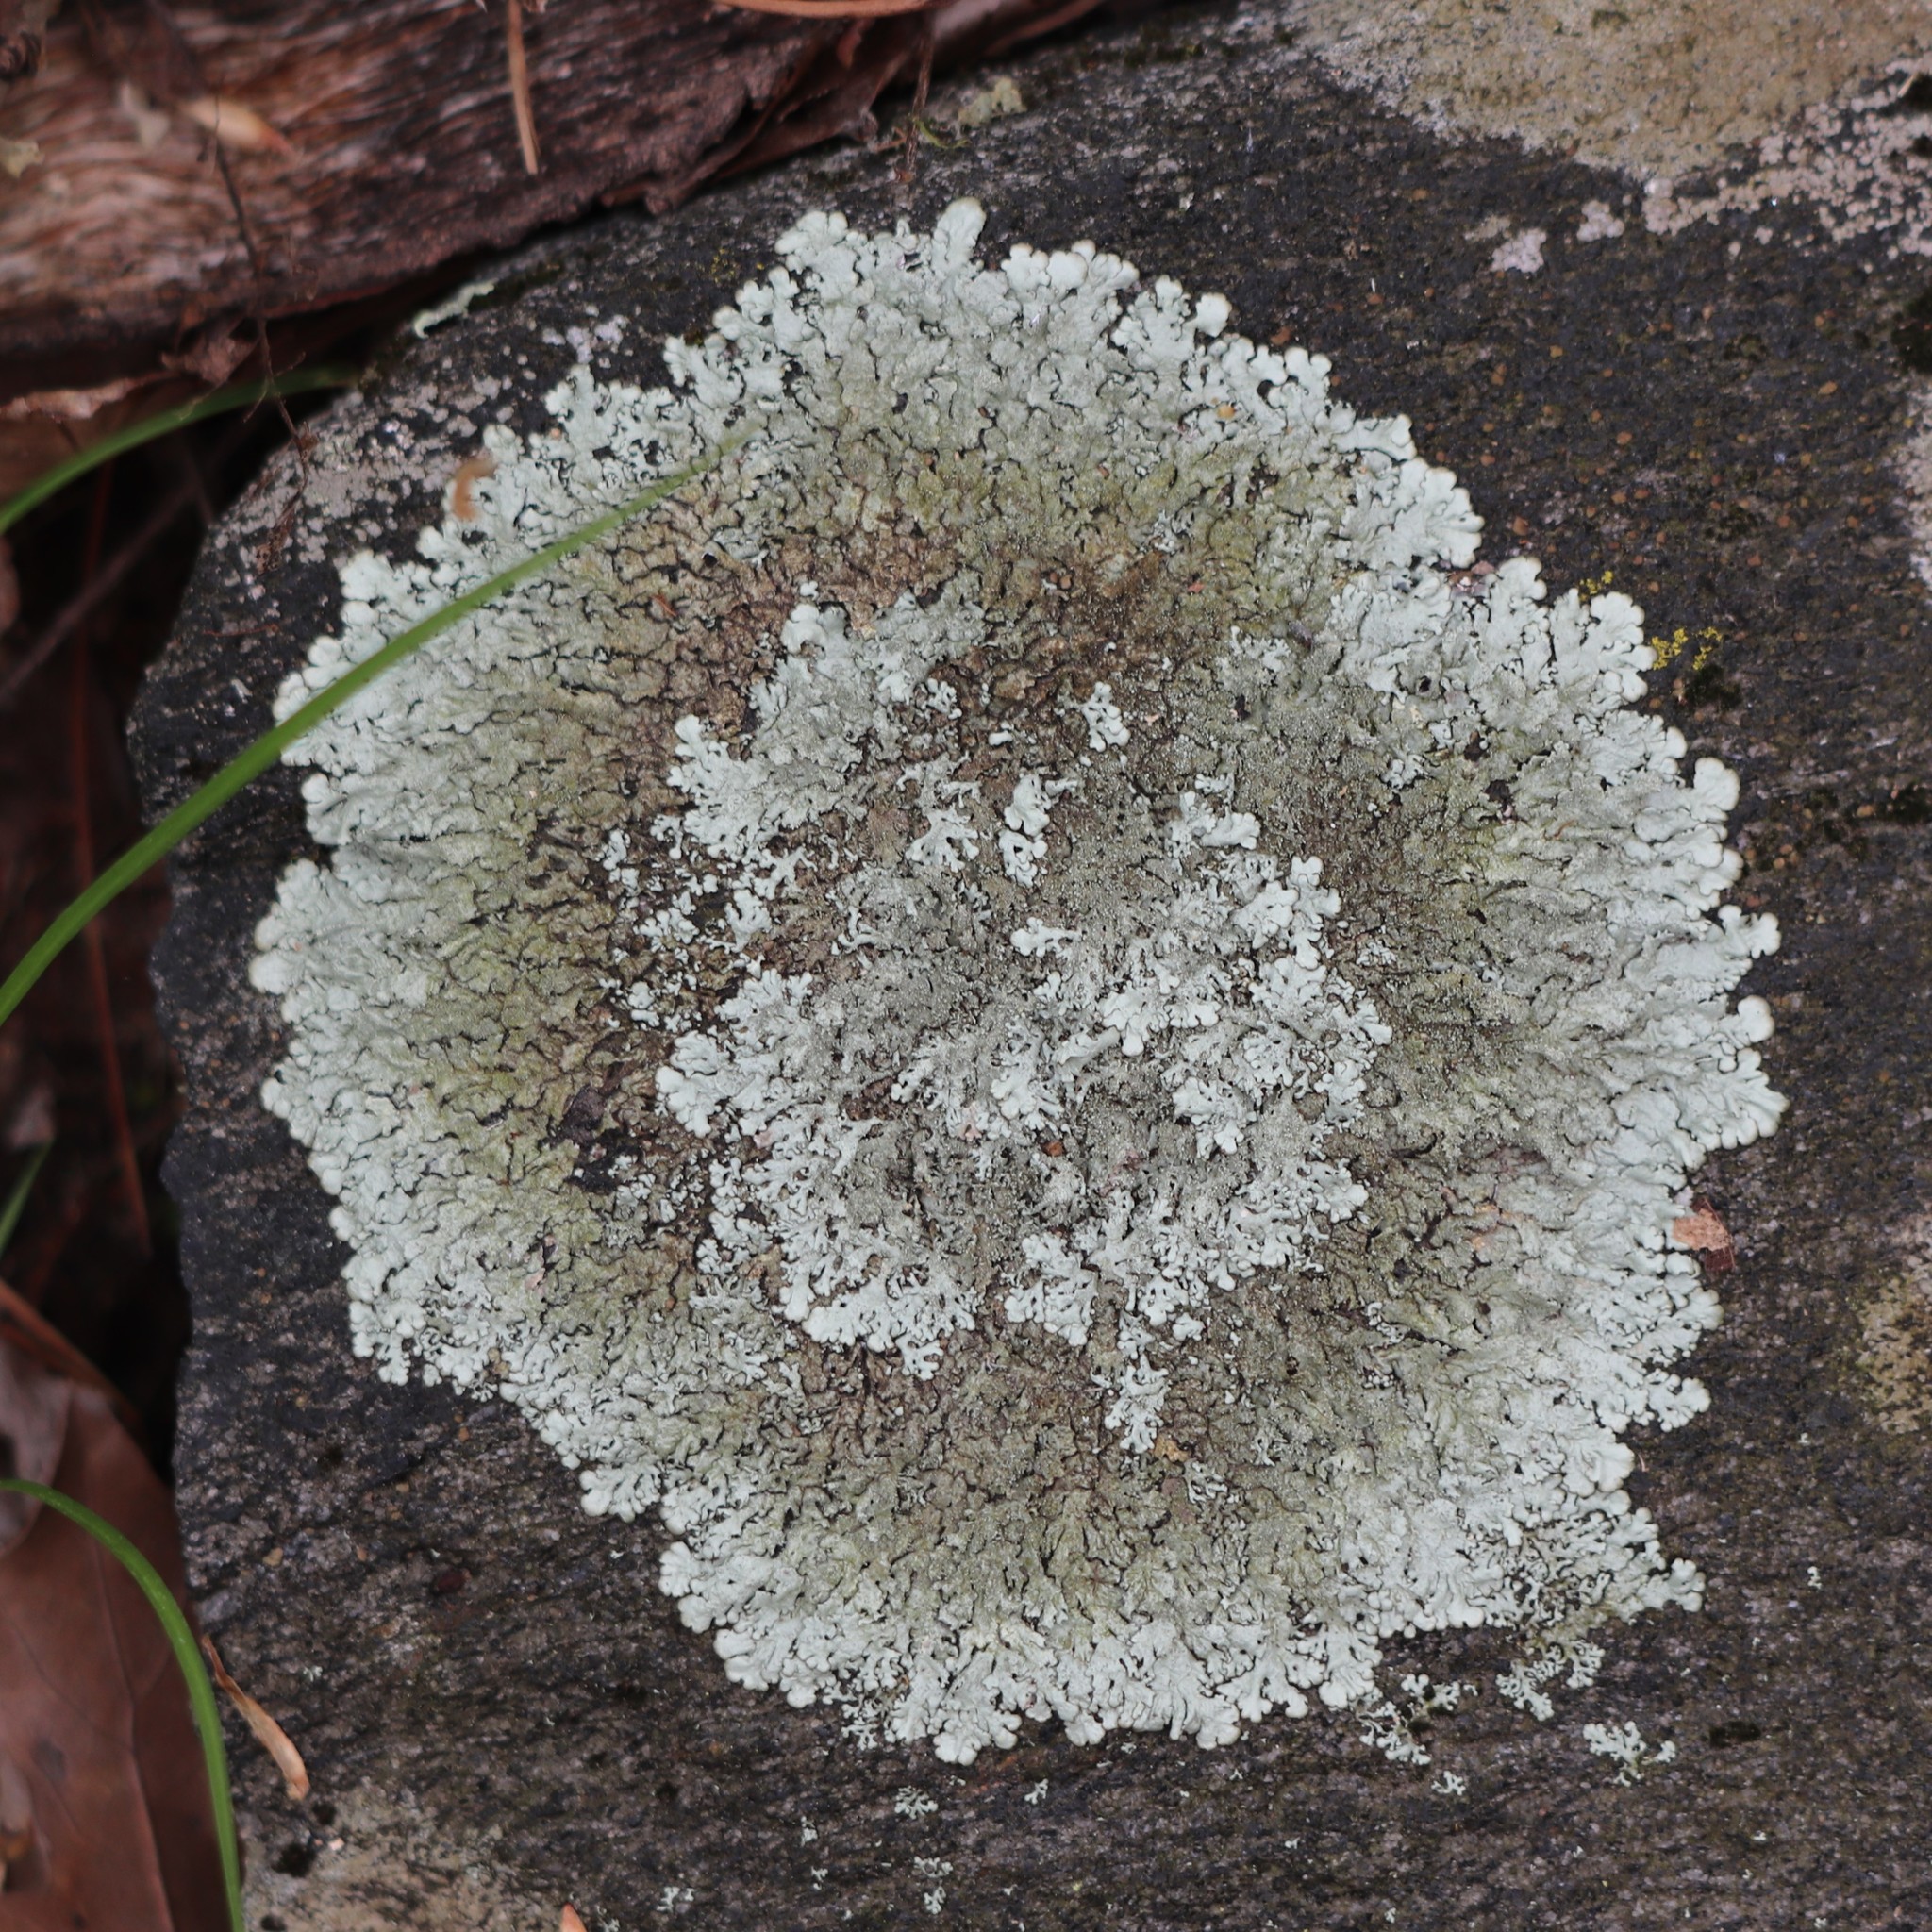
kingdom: Fungi
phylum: Ascomycota
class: Lecanoromycetes
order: Lecanorales
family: Parmeliaceae
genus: Xanthoparmelia
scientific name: Xanthoparmelia conspersa
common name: Peppered rock shield
